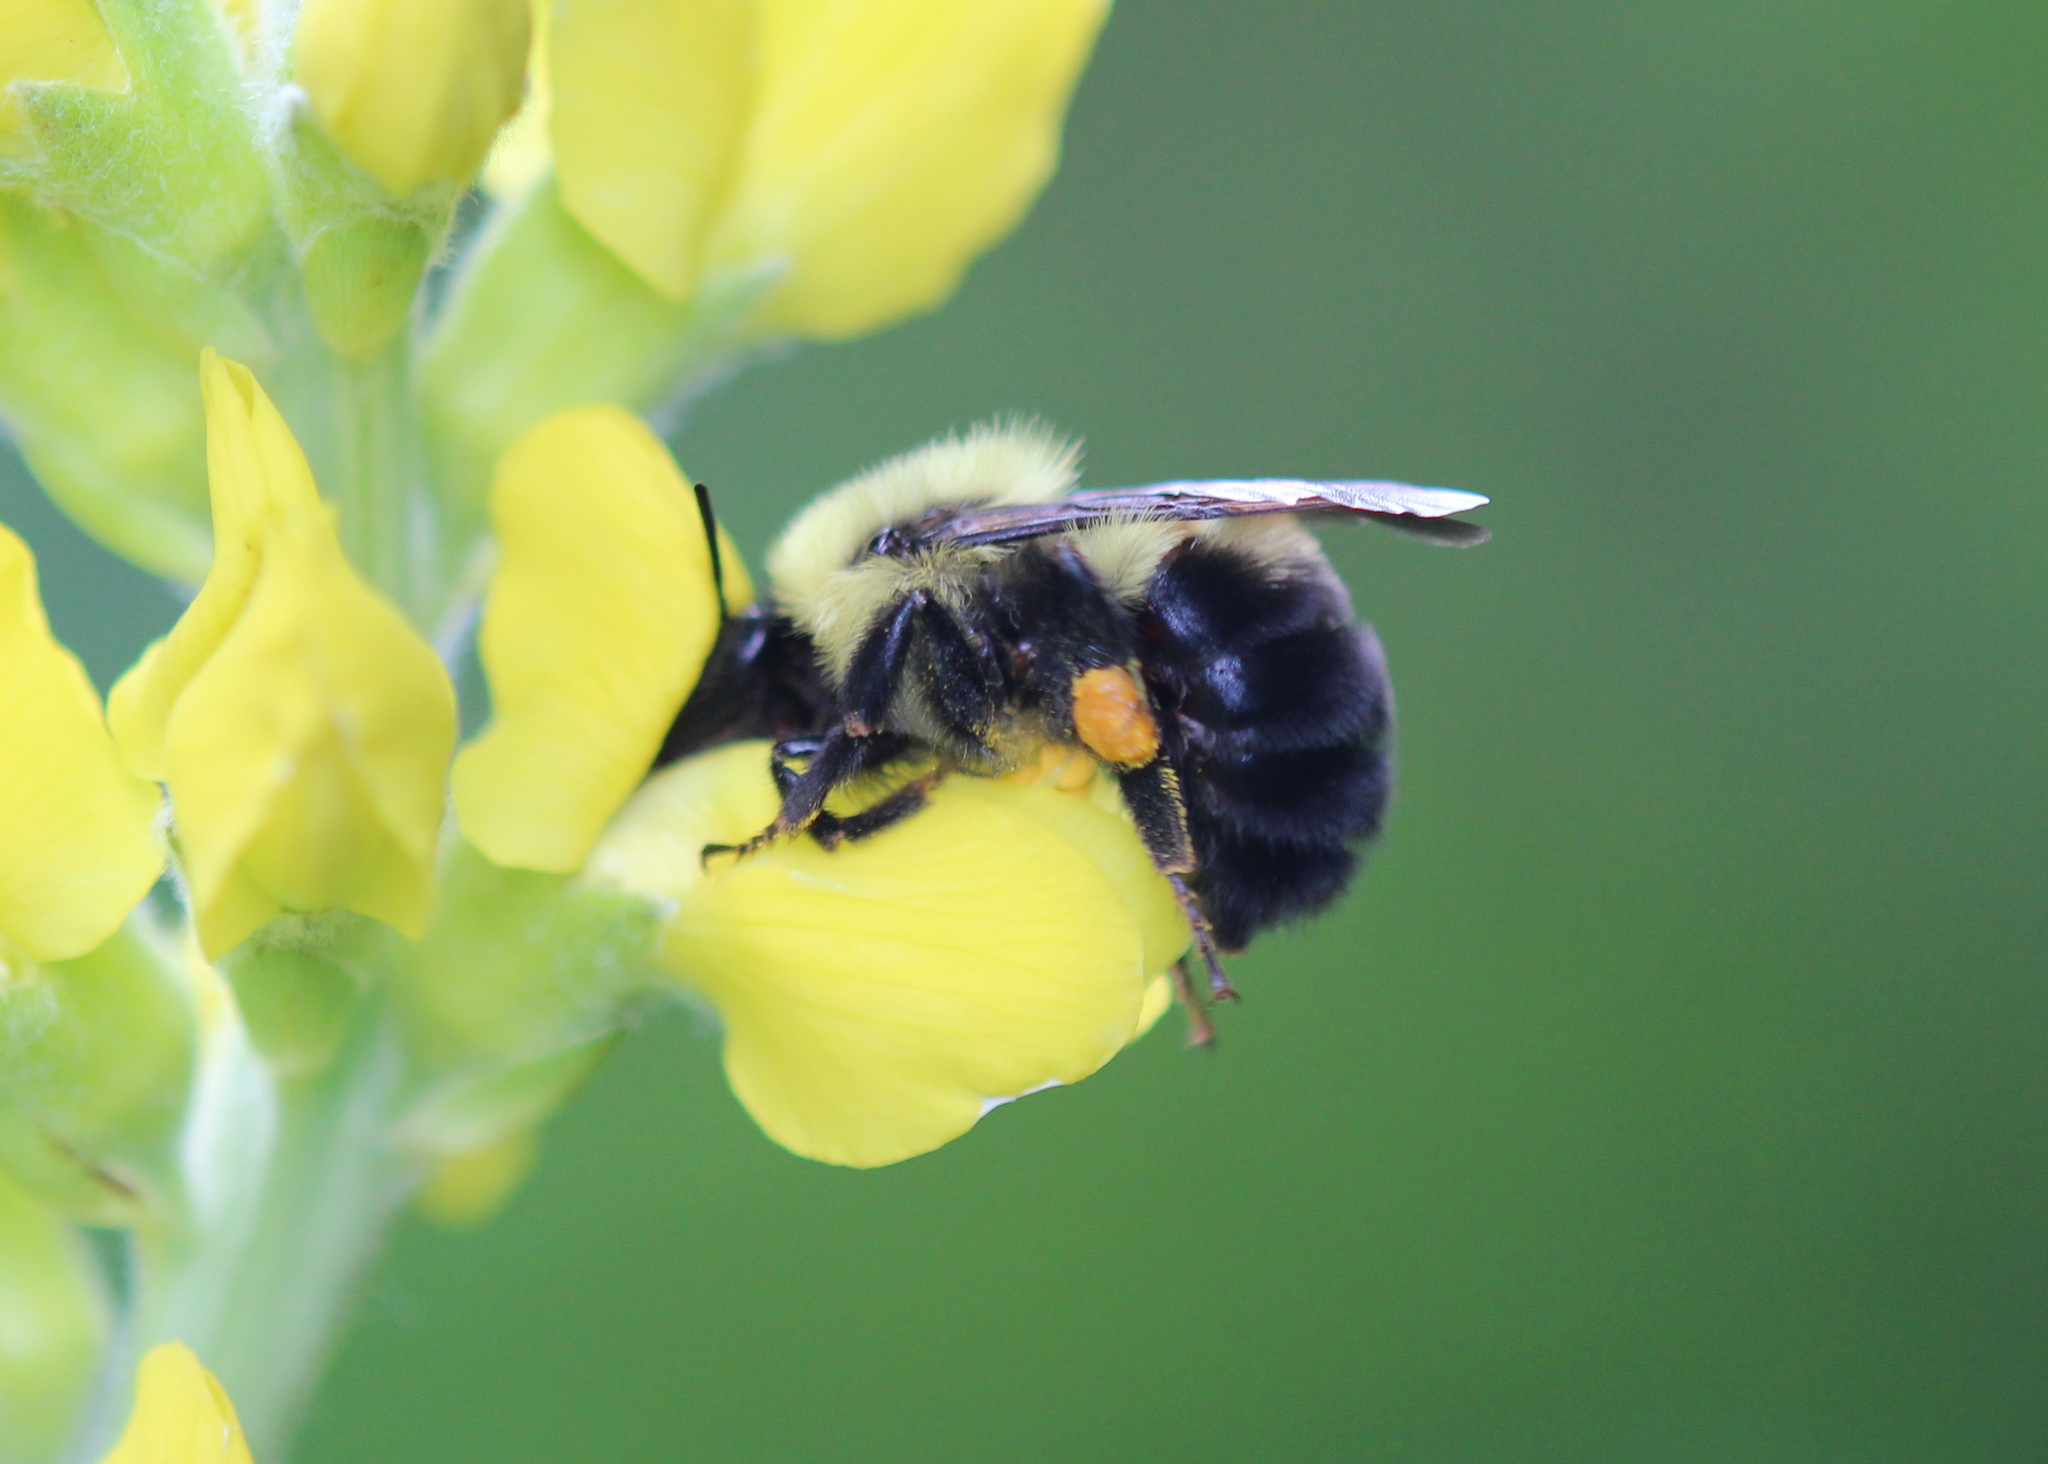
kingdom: Animalia
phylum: Arthropoda
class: Insecta
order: Hymenoptera
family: Apidae
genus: Bombus
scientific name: Bombus bimaculatus
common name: Two-spotted bumble bee
